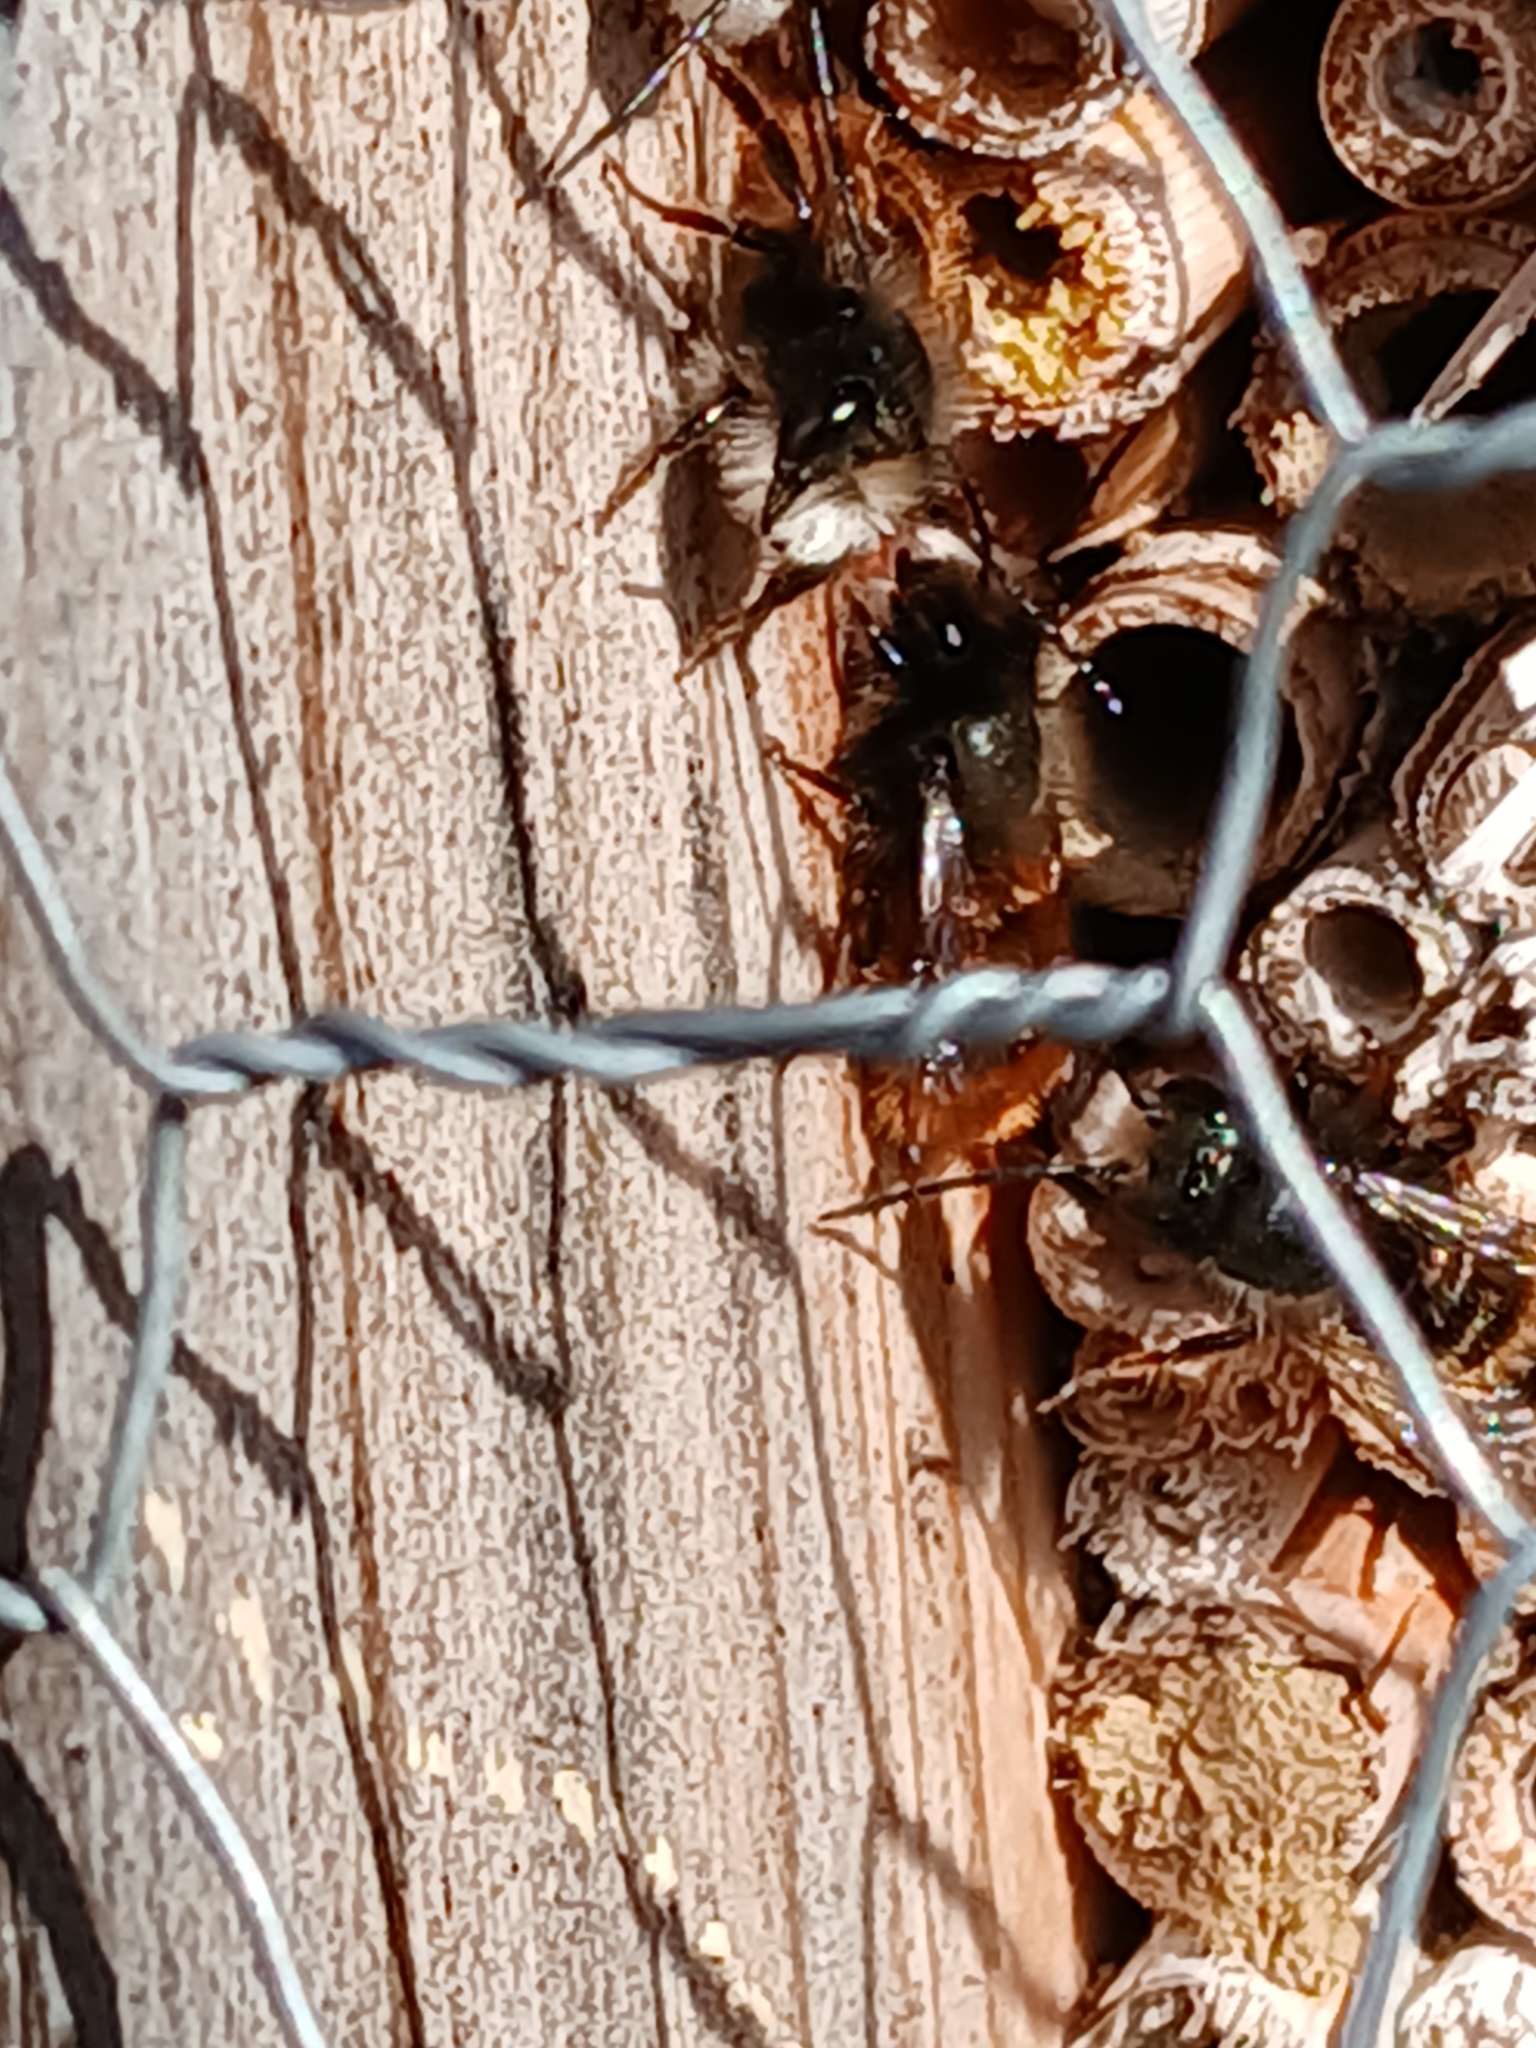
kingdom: Animalia
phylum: Arthropoda
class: Insecta
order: Hymenoptera
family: Megachilidae
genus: Osmia
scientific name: Osmia cornuta
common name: Mason bee
